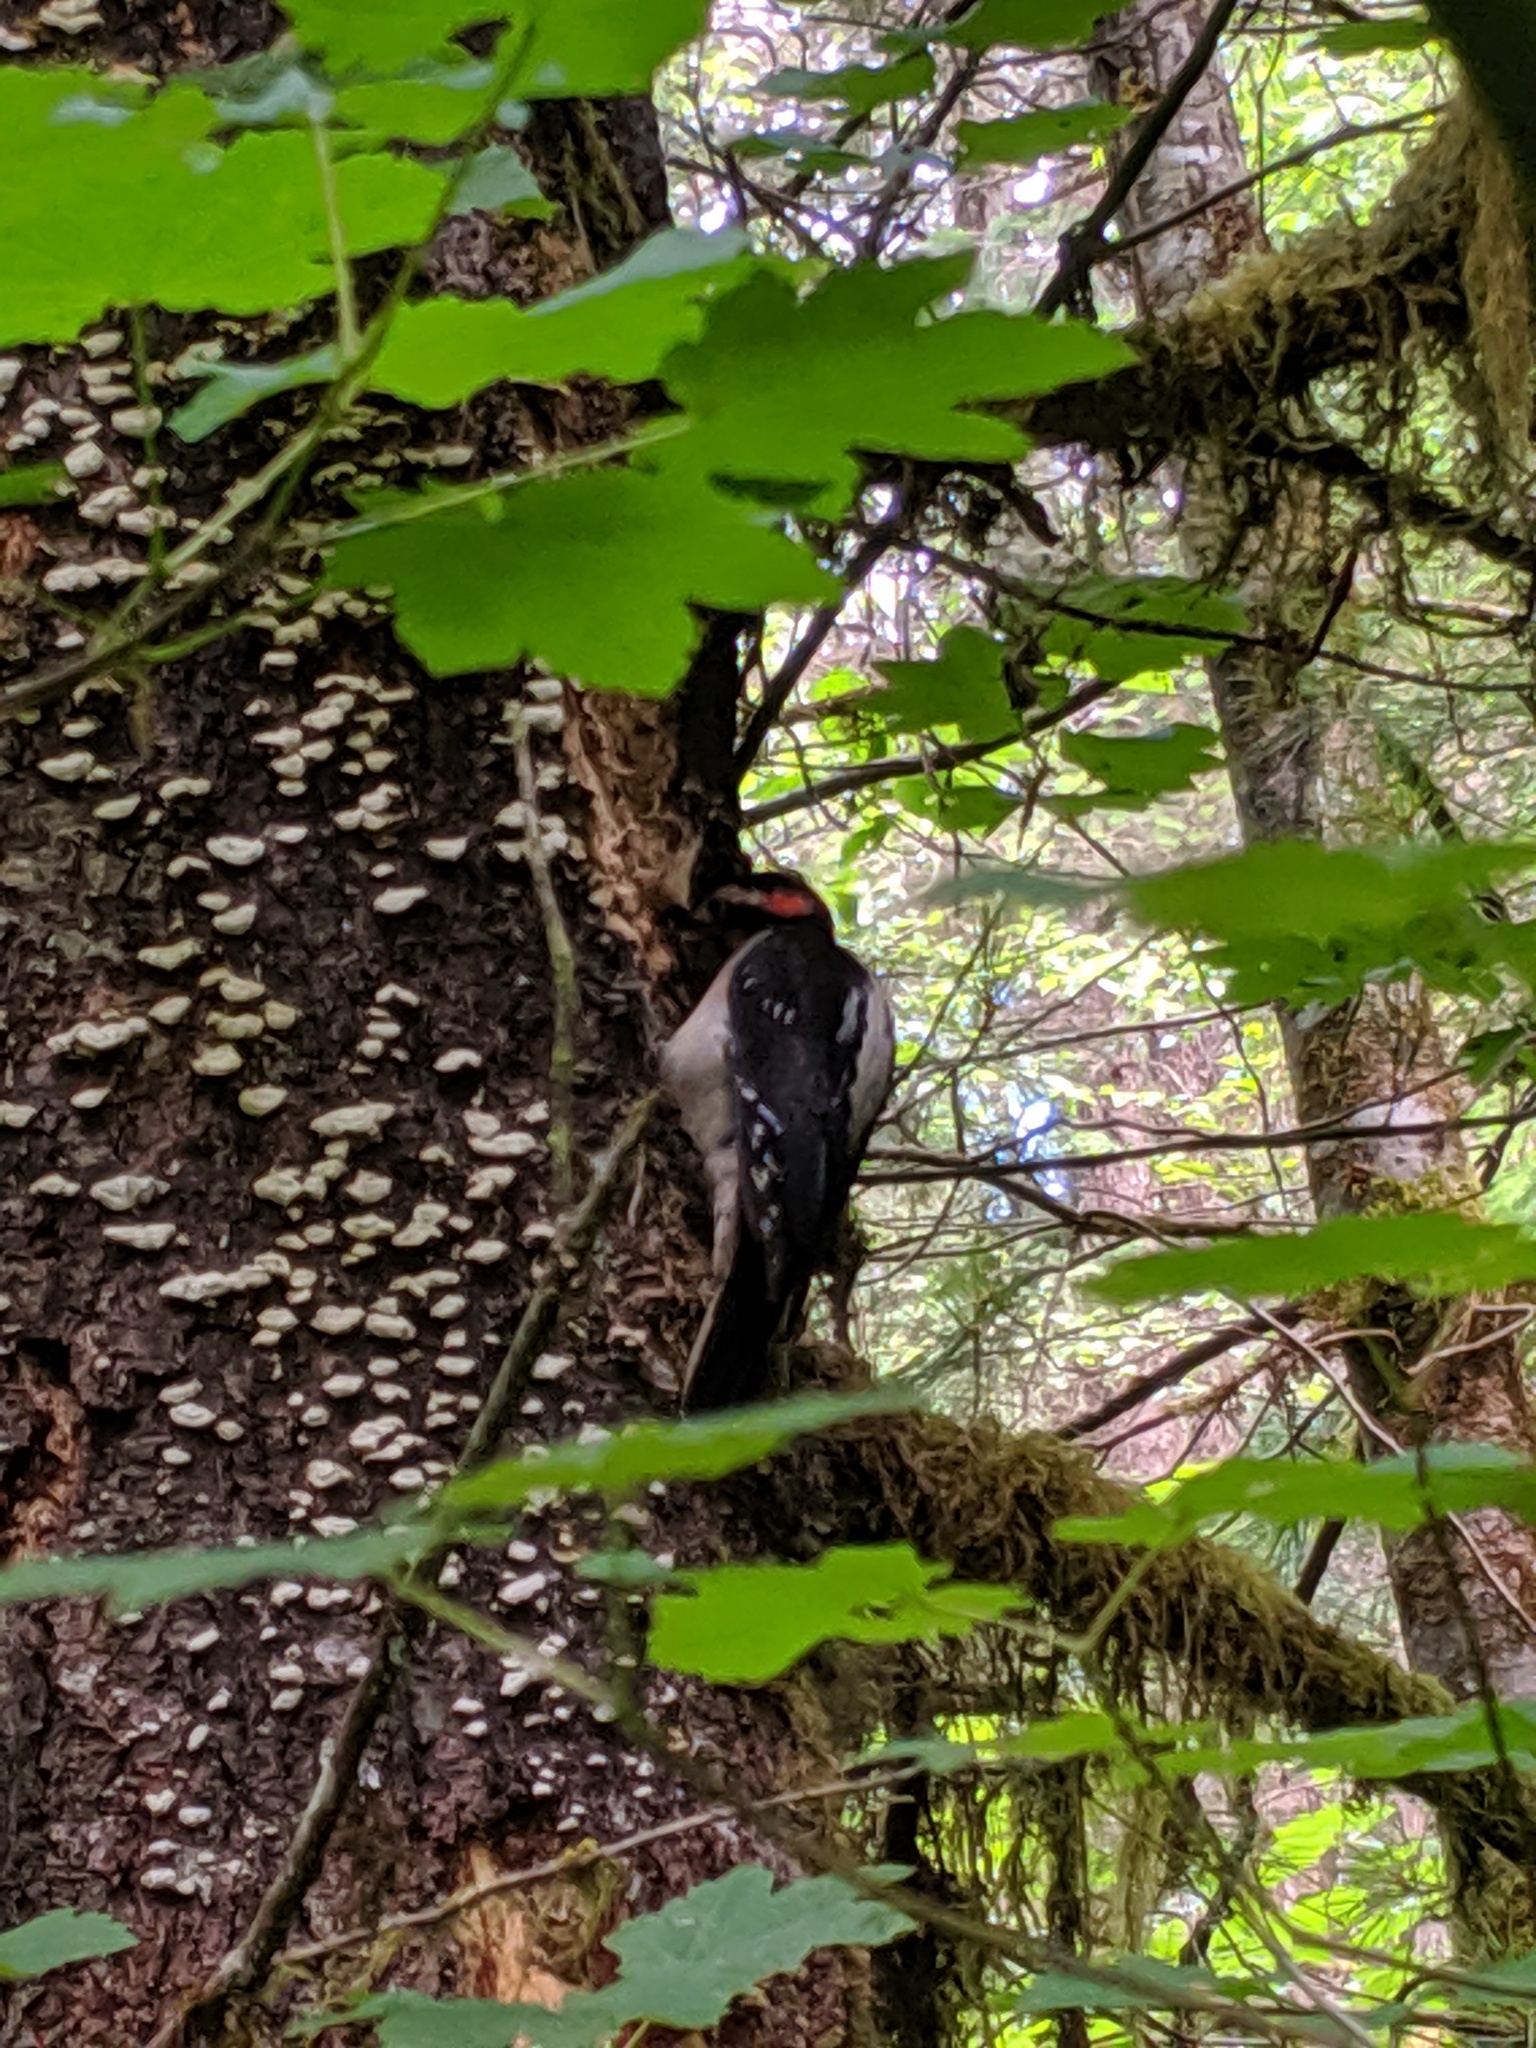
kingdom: Animalia
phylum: Chordata
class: Aves
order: Piciformes
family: Picidae
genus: Leuconotopicus
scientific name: Leuconotopicus villosus
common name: Hairy woodpecker
